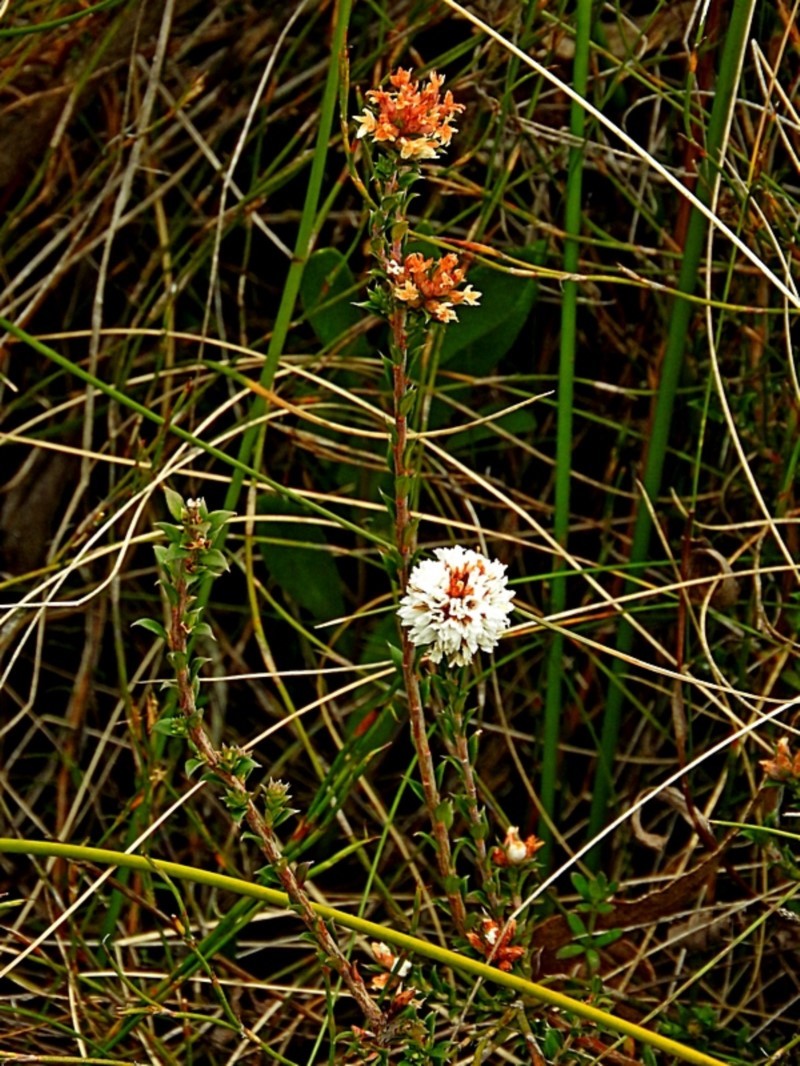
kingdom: Plantae
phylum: Tracheophyta
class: Magnoliopsida
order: Ericales
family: Ericaceae
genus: Epacris
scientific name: Epacris breviflora
